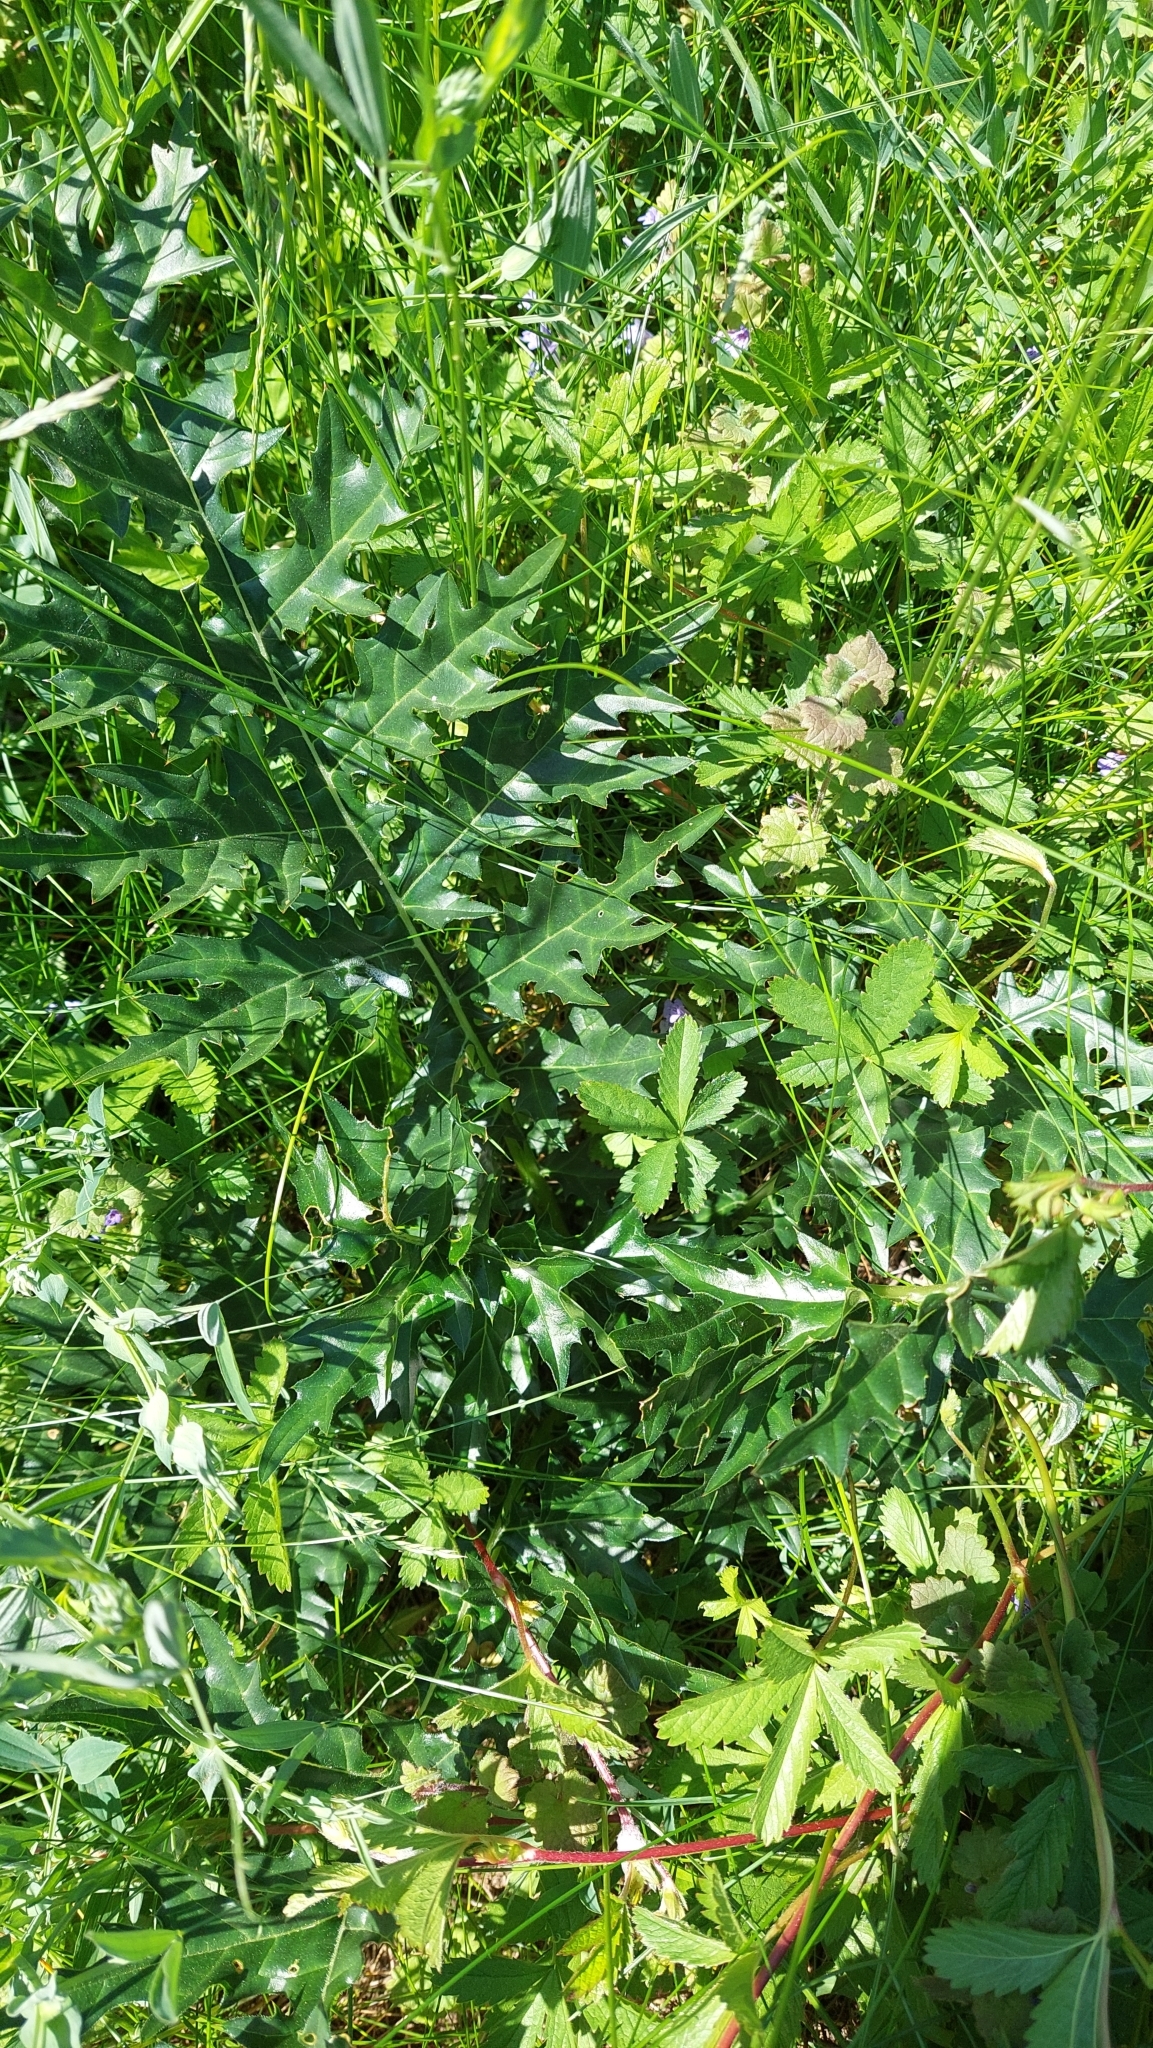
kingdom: Plantae
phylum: Tracheophyta
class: Magnoliopsida
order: Lamiales
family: Acanthaceae
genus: Acanthus
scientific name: Acanthus spinosus
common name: Spiny bear's-breech
